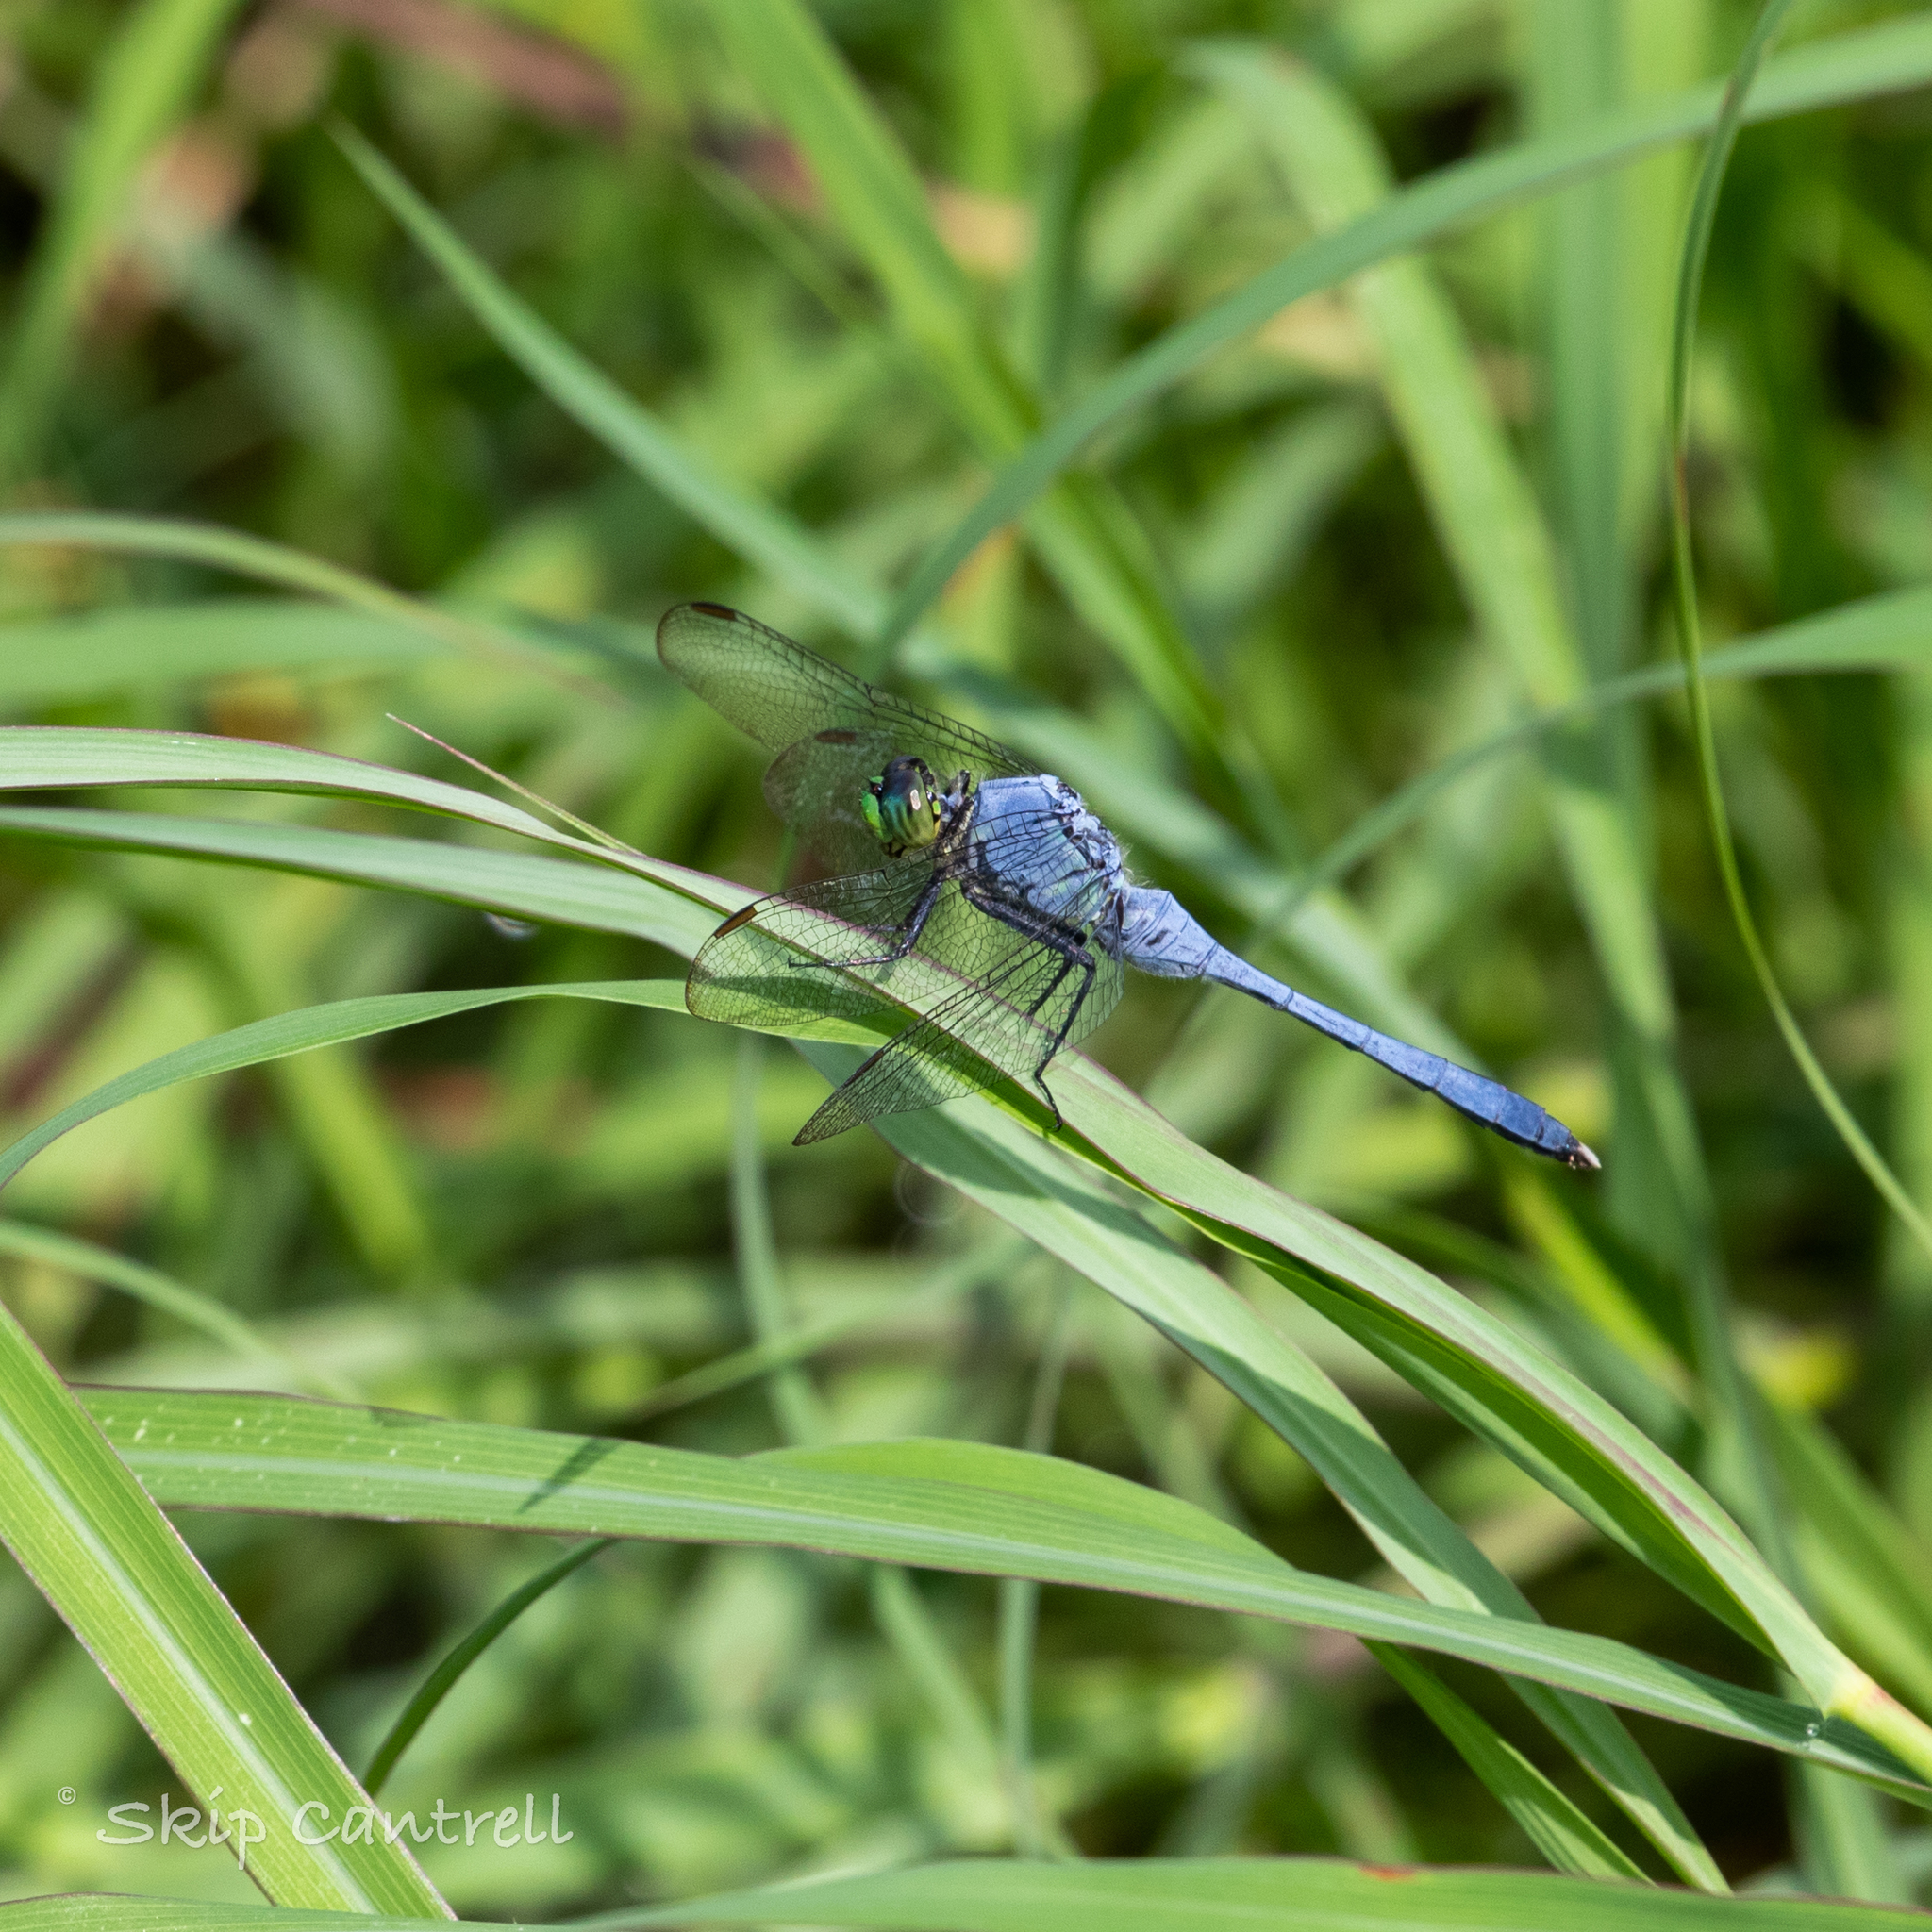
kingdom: Animalia
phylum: Arthropoda
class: Insecta
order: Odonata
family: Libellulidae
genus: Erythemis
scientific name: Erythemis simplicicollis
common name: Eastern pondhawk
